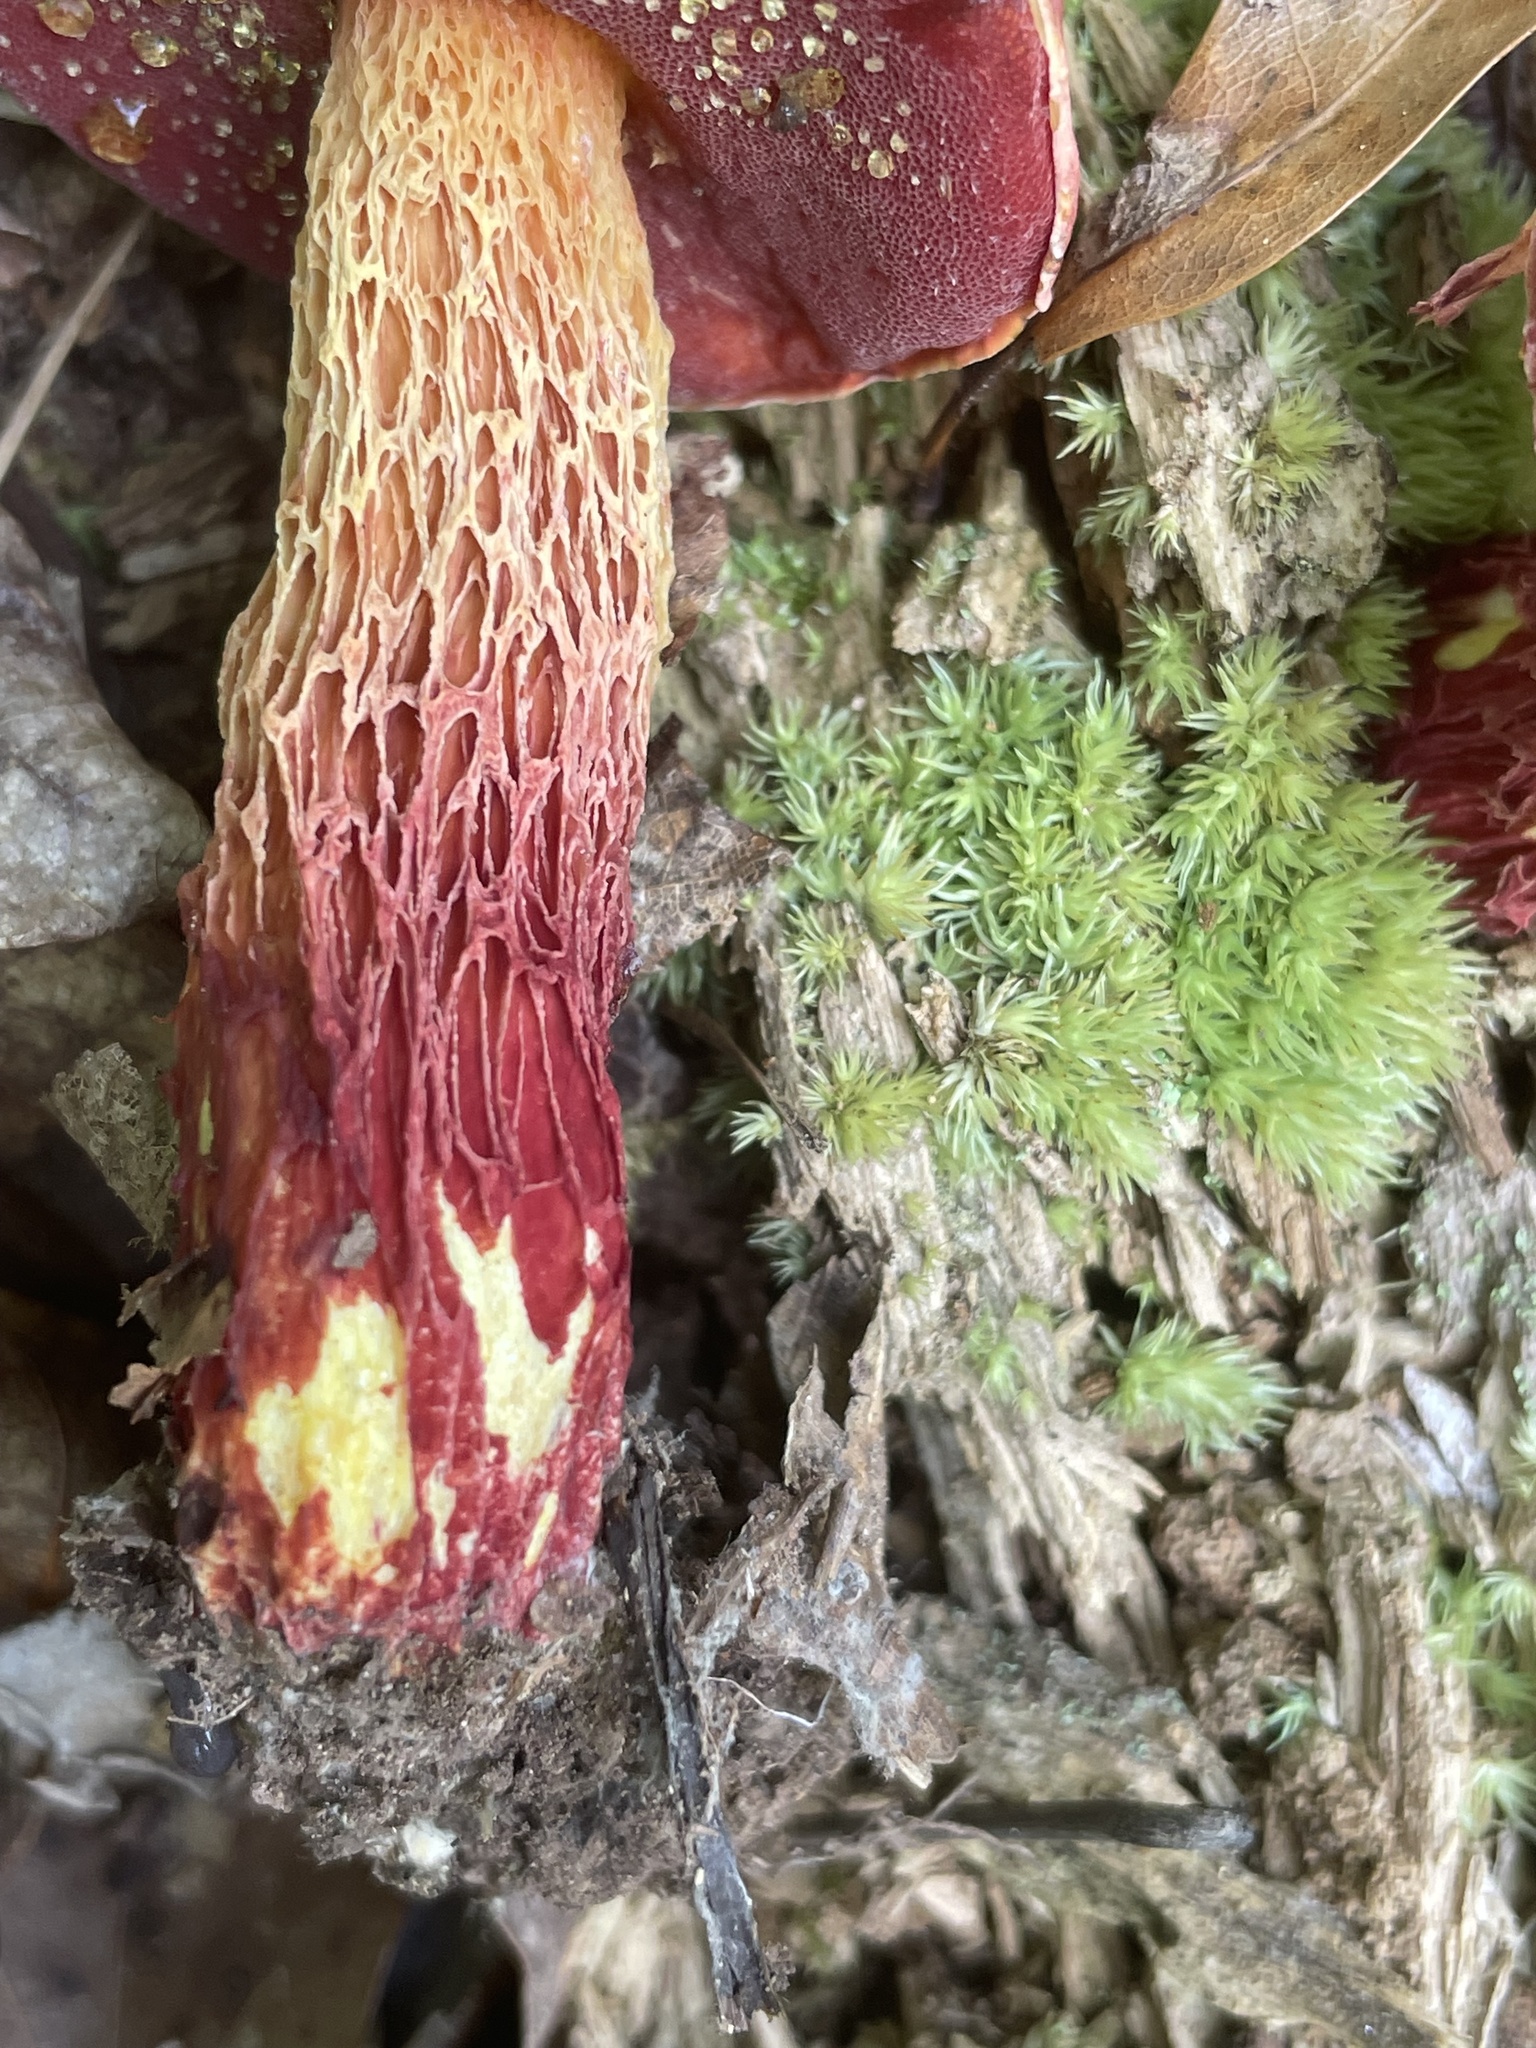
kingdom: Fungi
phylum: Basidiomycota
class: Agaricomycetes
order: Boletales
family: Boletaceae
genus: Butyriboletus
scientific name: Butyriboletus frostii
